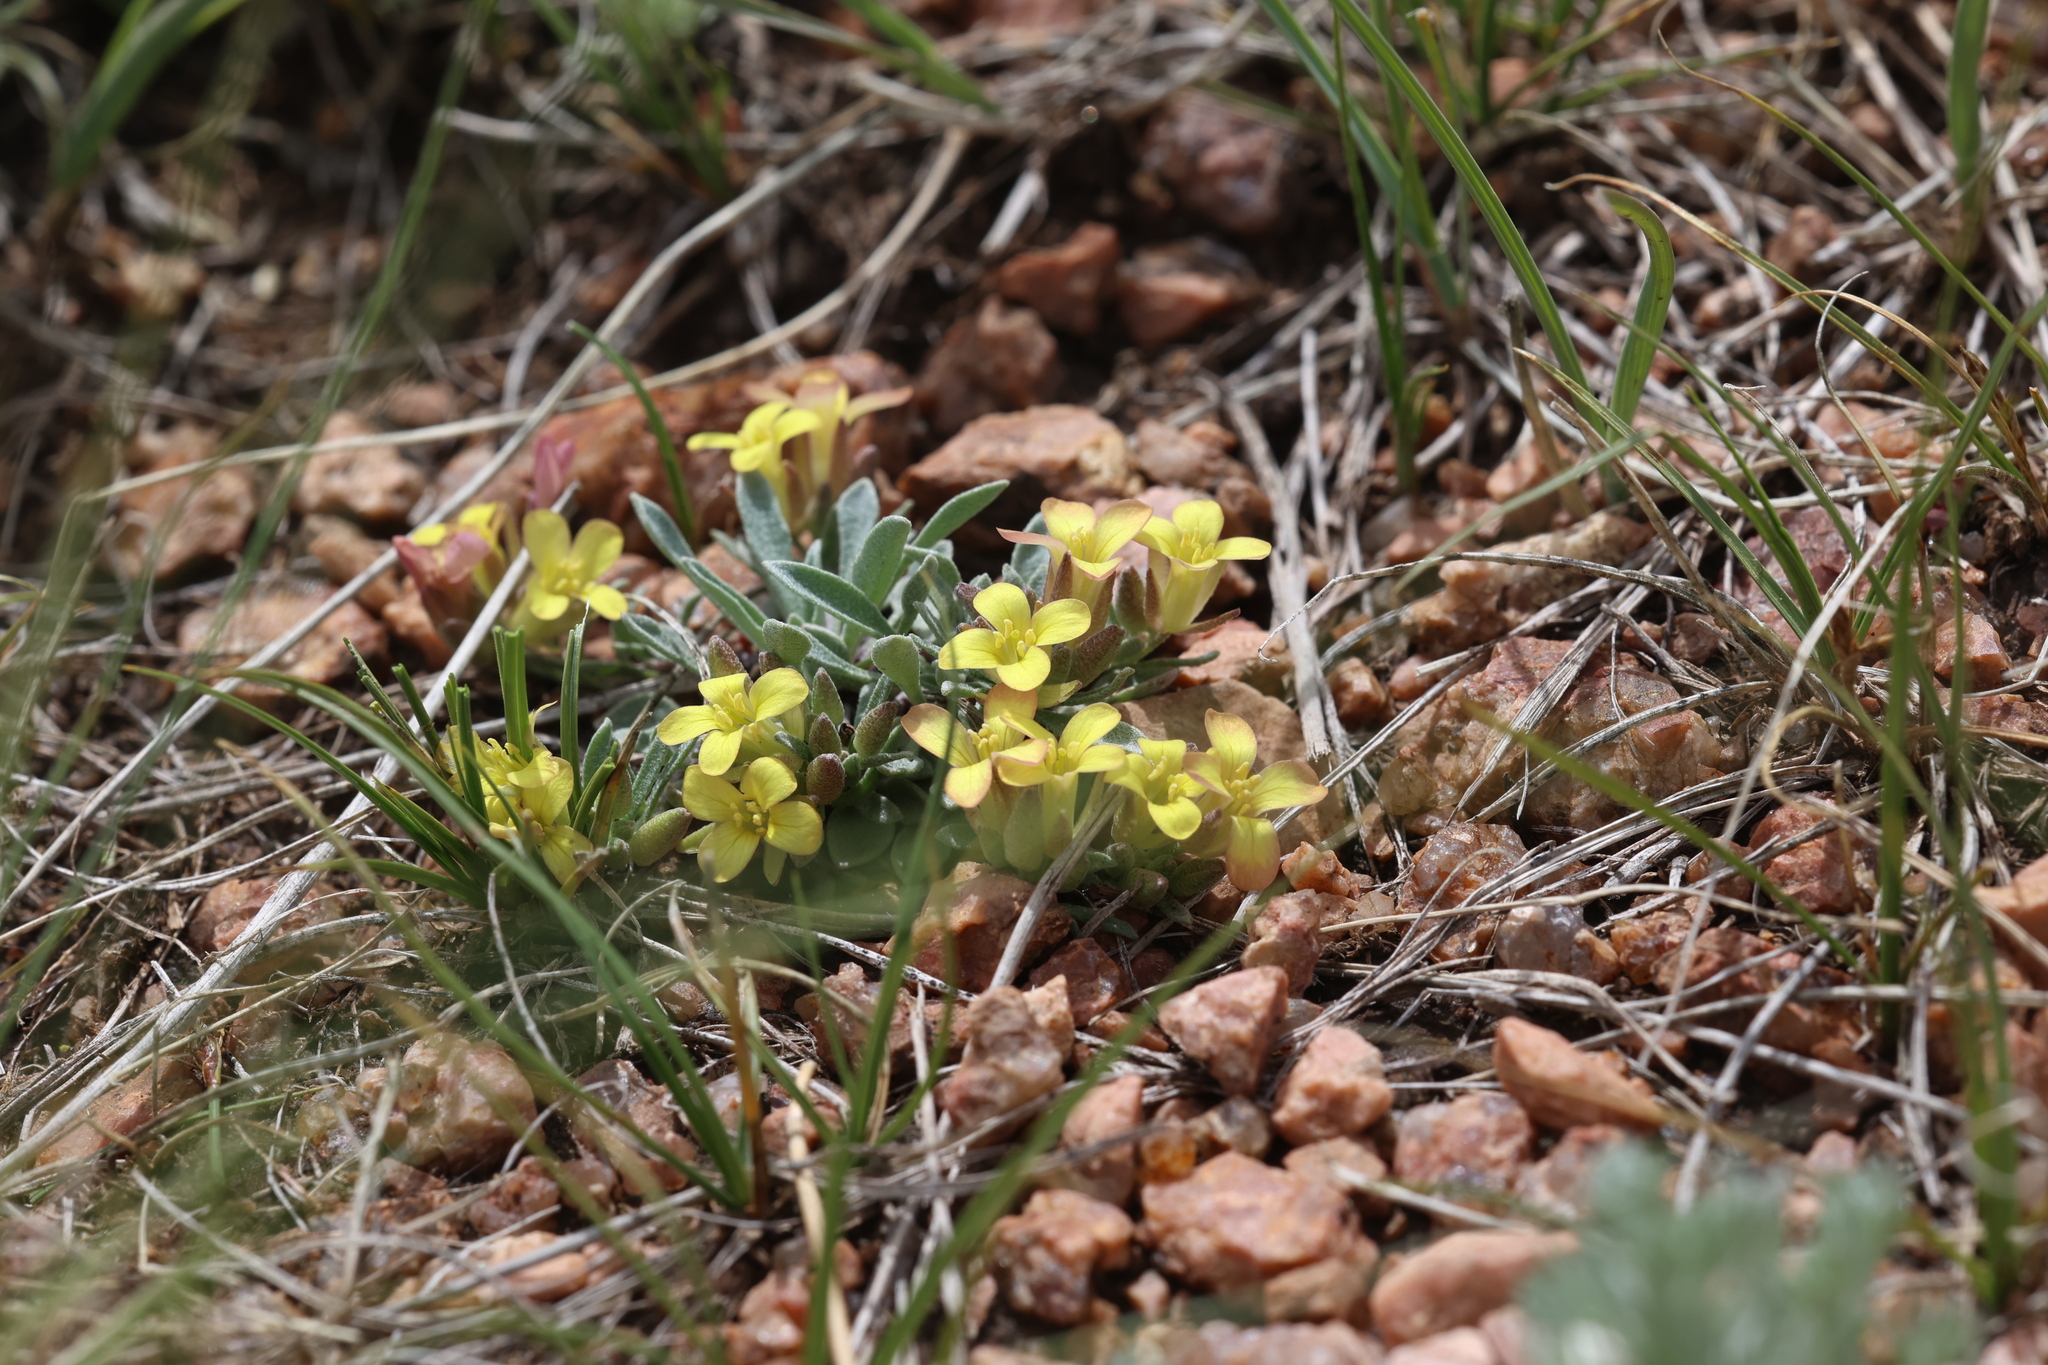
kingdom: Plantae
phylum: Tracheophyta
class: Magnoliopsida
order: Brassicales
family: Brassicaceae
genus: Physaria
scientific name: Physaria montana
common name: Mountain bladderpod
